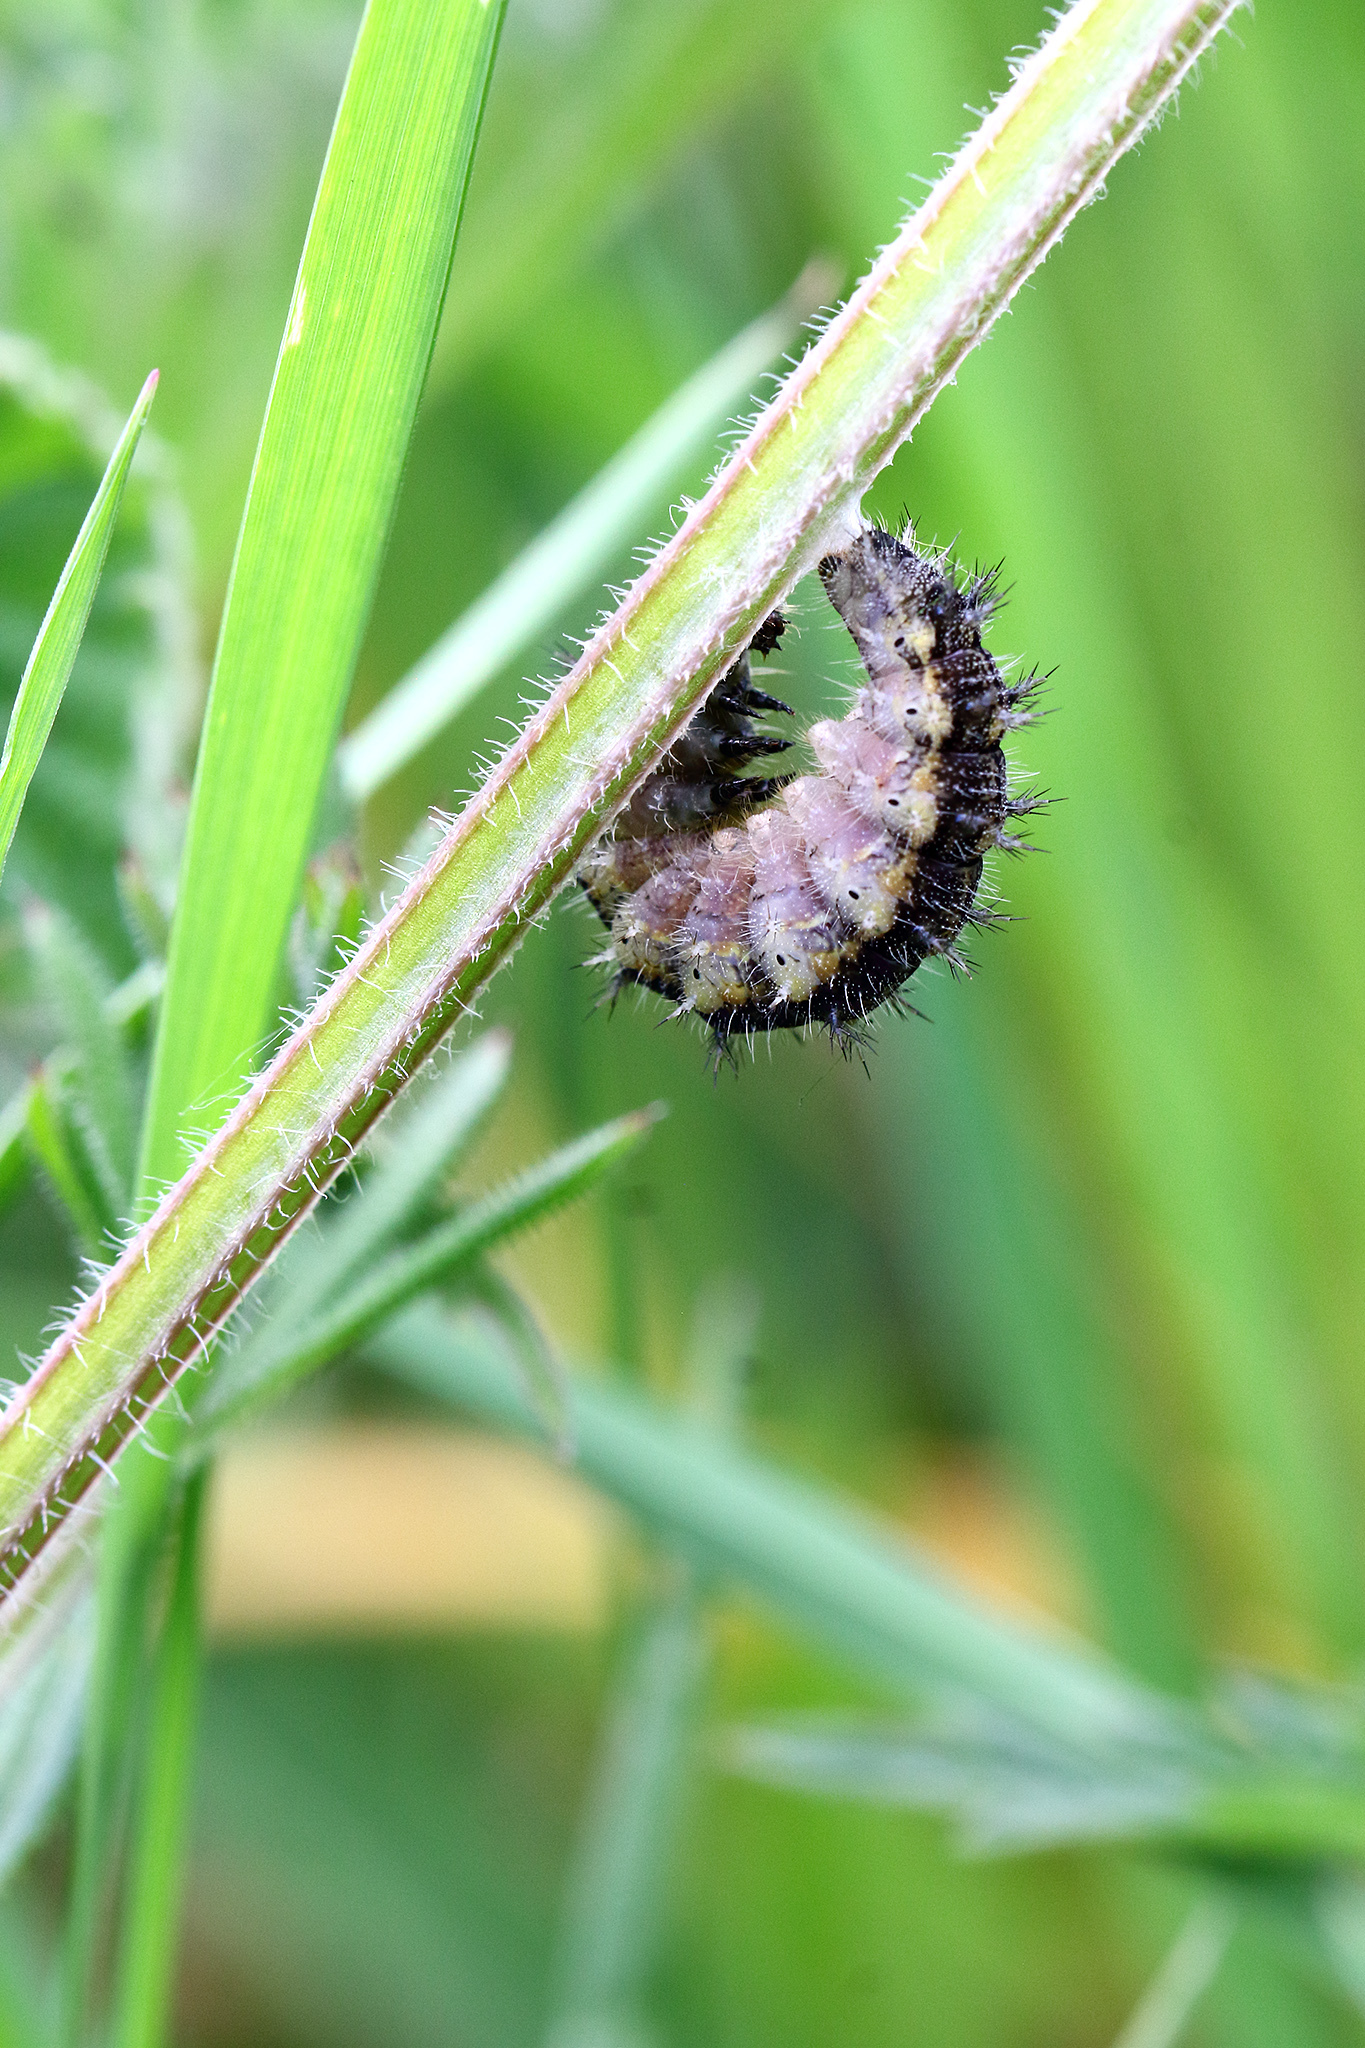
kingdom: Animalia
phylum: Arthropoda
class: Insecta
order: Lepidoptera
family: Nymphalidae
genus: Aglais
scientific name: Aglais urticae
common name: Small tortoiseshell
